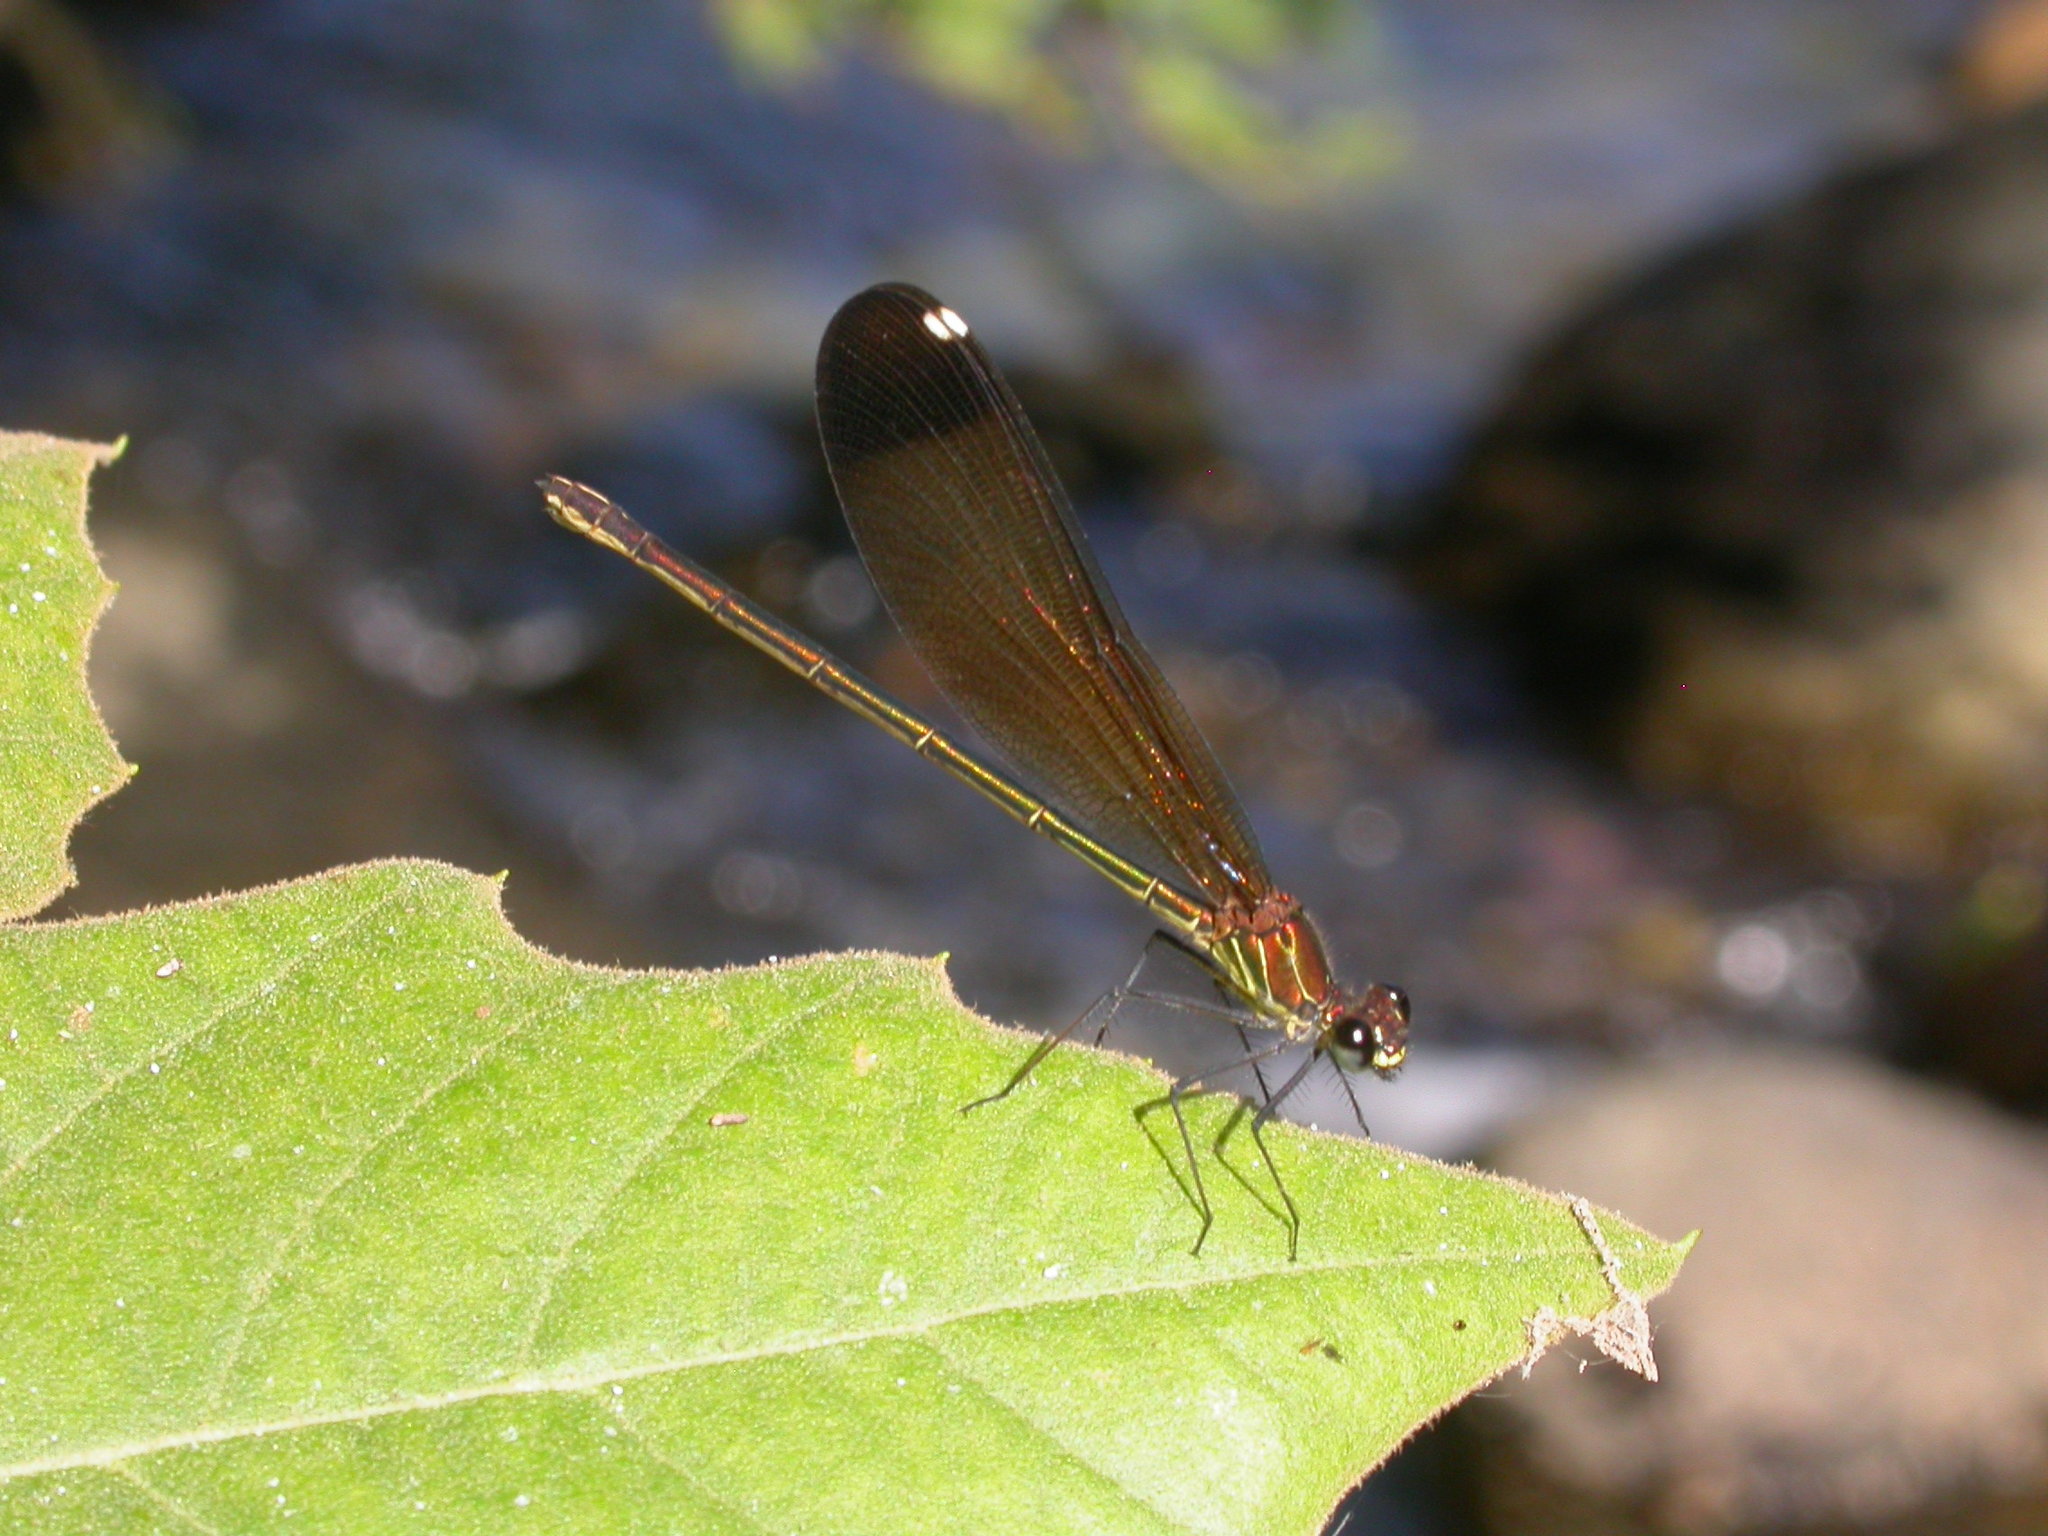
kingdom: Animalia
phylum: Arthropoda
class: Insecta
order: Odonata
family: Calopterygidae
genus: Calopteryx
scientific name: Calopteryx haemorrhoidalis
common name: Copper demoiselle
